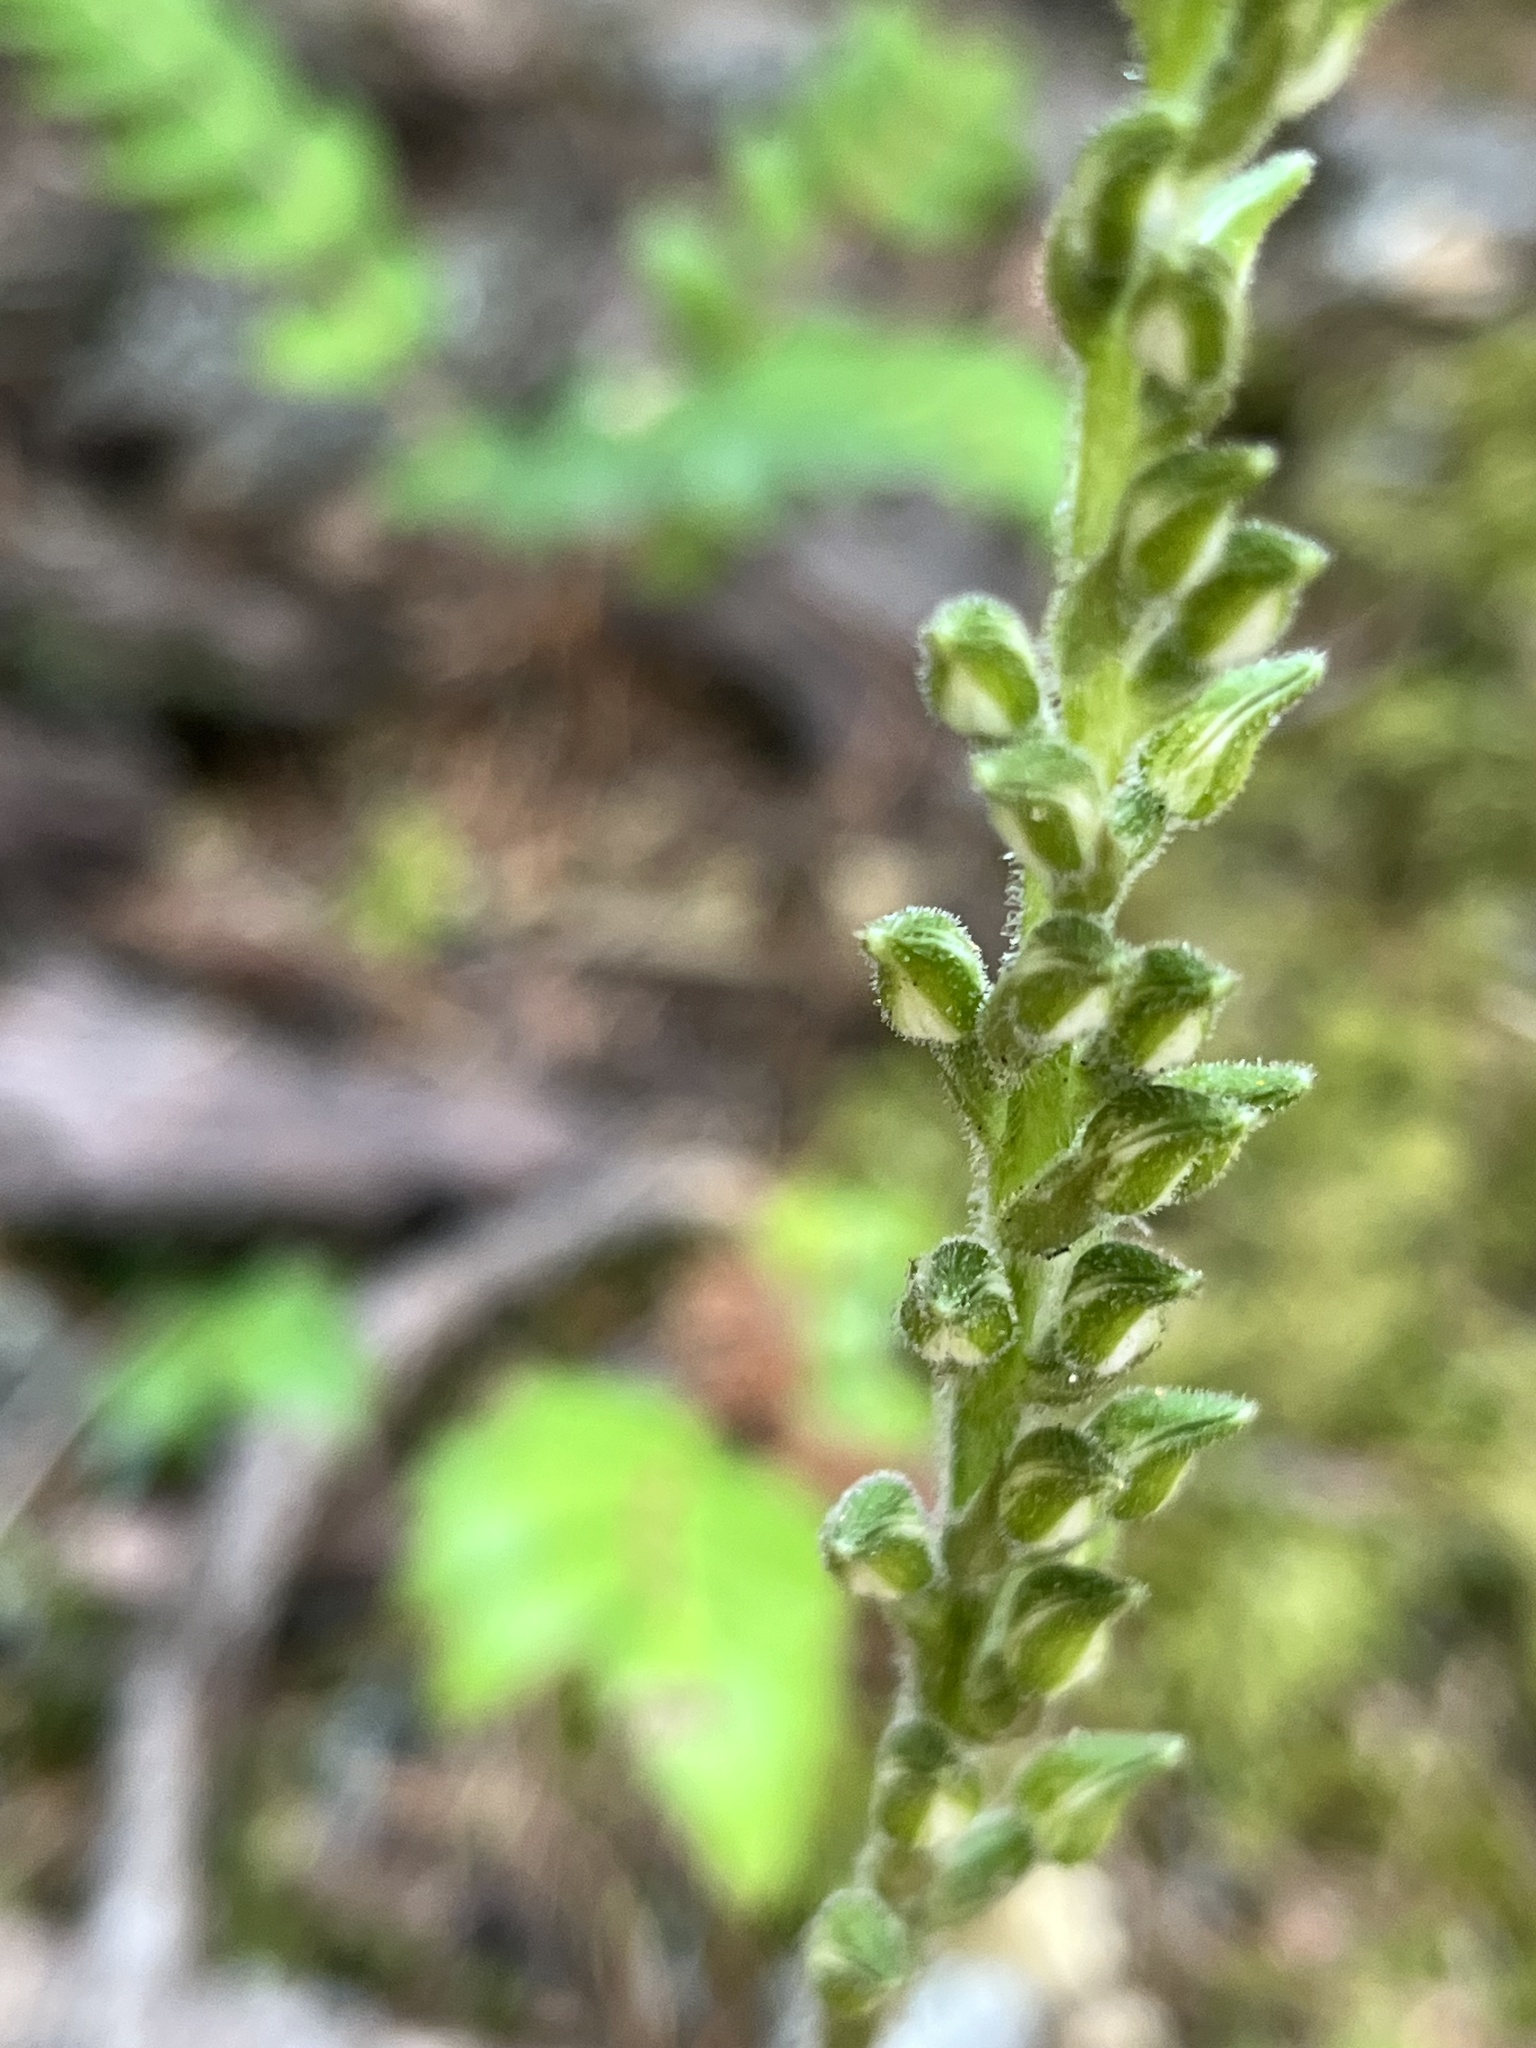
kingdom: Plantae
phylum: Tracheophyta
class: Liliopsida
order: Asparagales
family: Orchidaceae
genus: Goodyera
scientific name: Goodyera oblongifolia
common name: Giant rattlesnake-plantain
